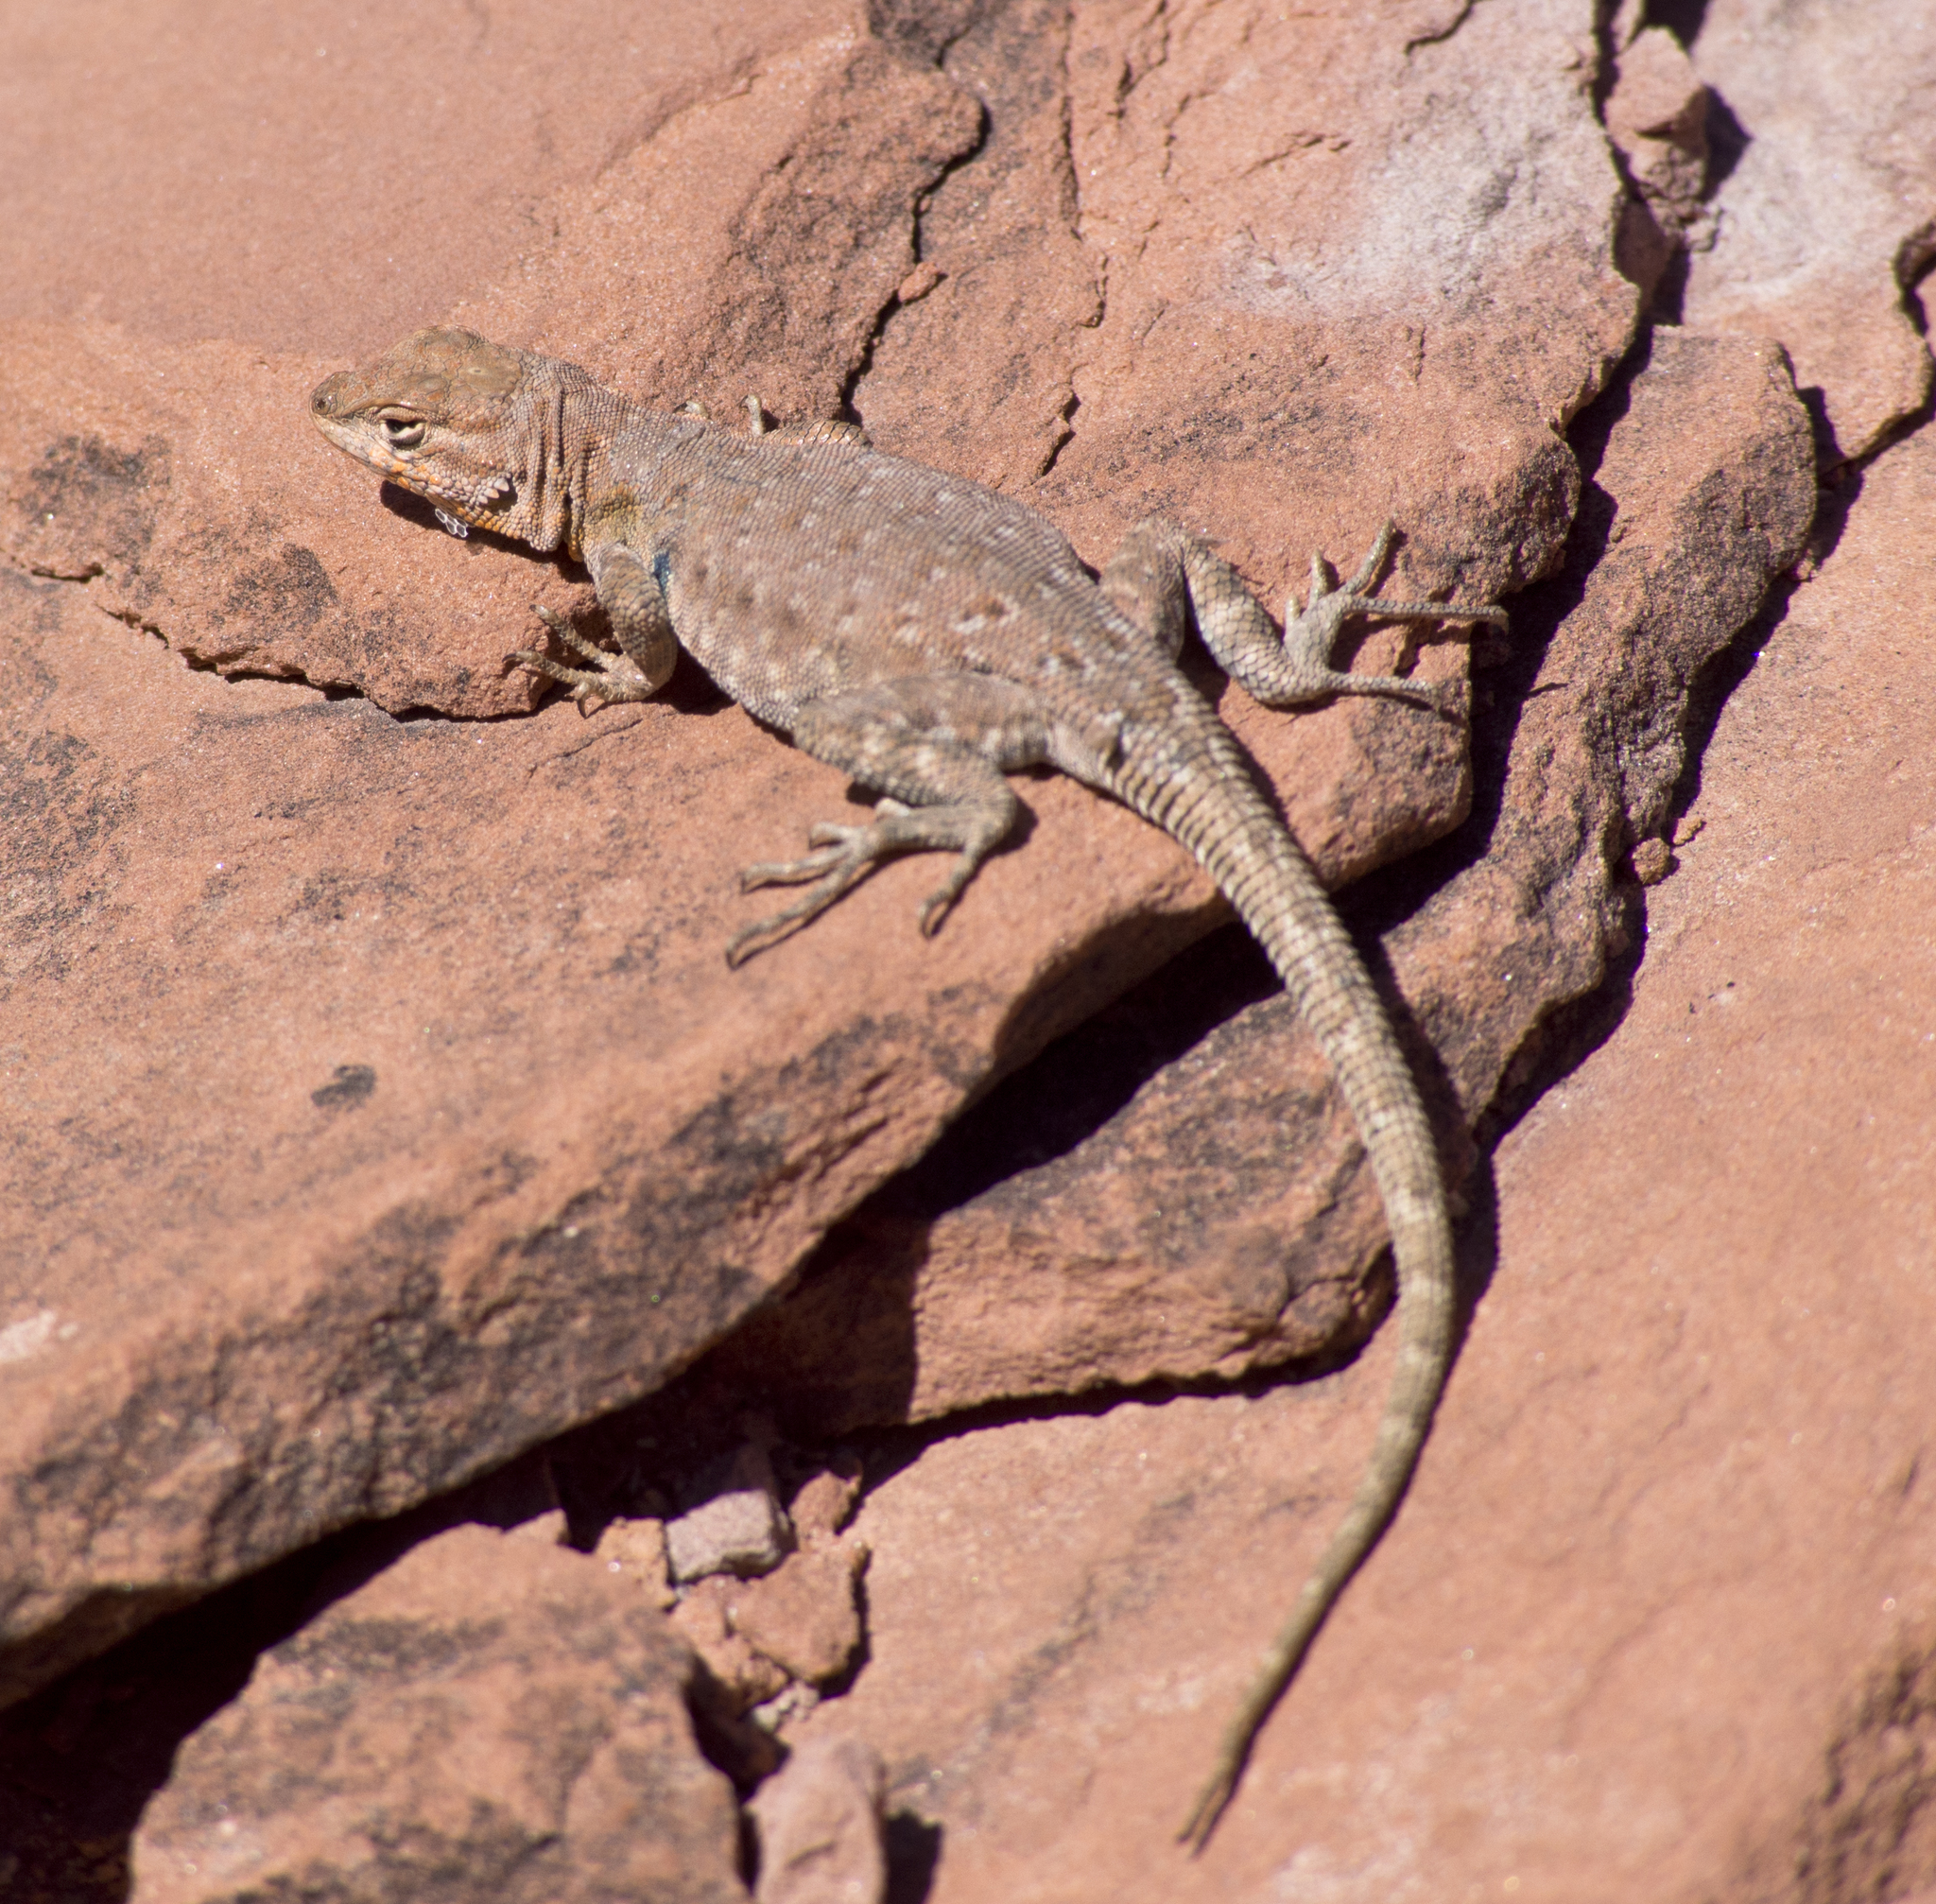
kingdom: Animalia
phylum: Chordata
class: Squamata
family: Phrynosomatidae
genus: Uta
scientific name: Uta stansburiana
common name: Side-blotched lizard
